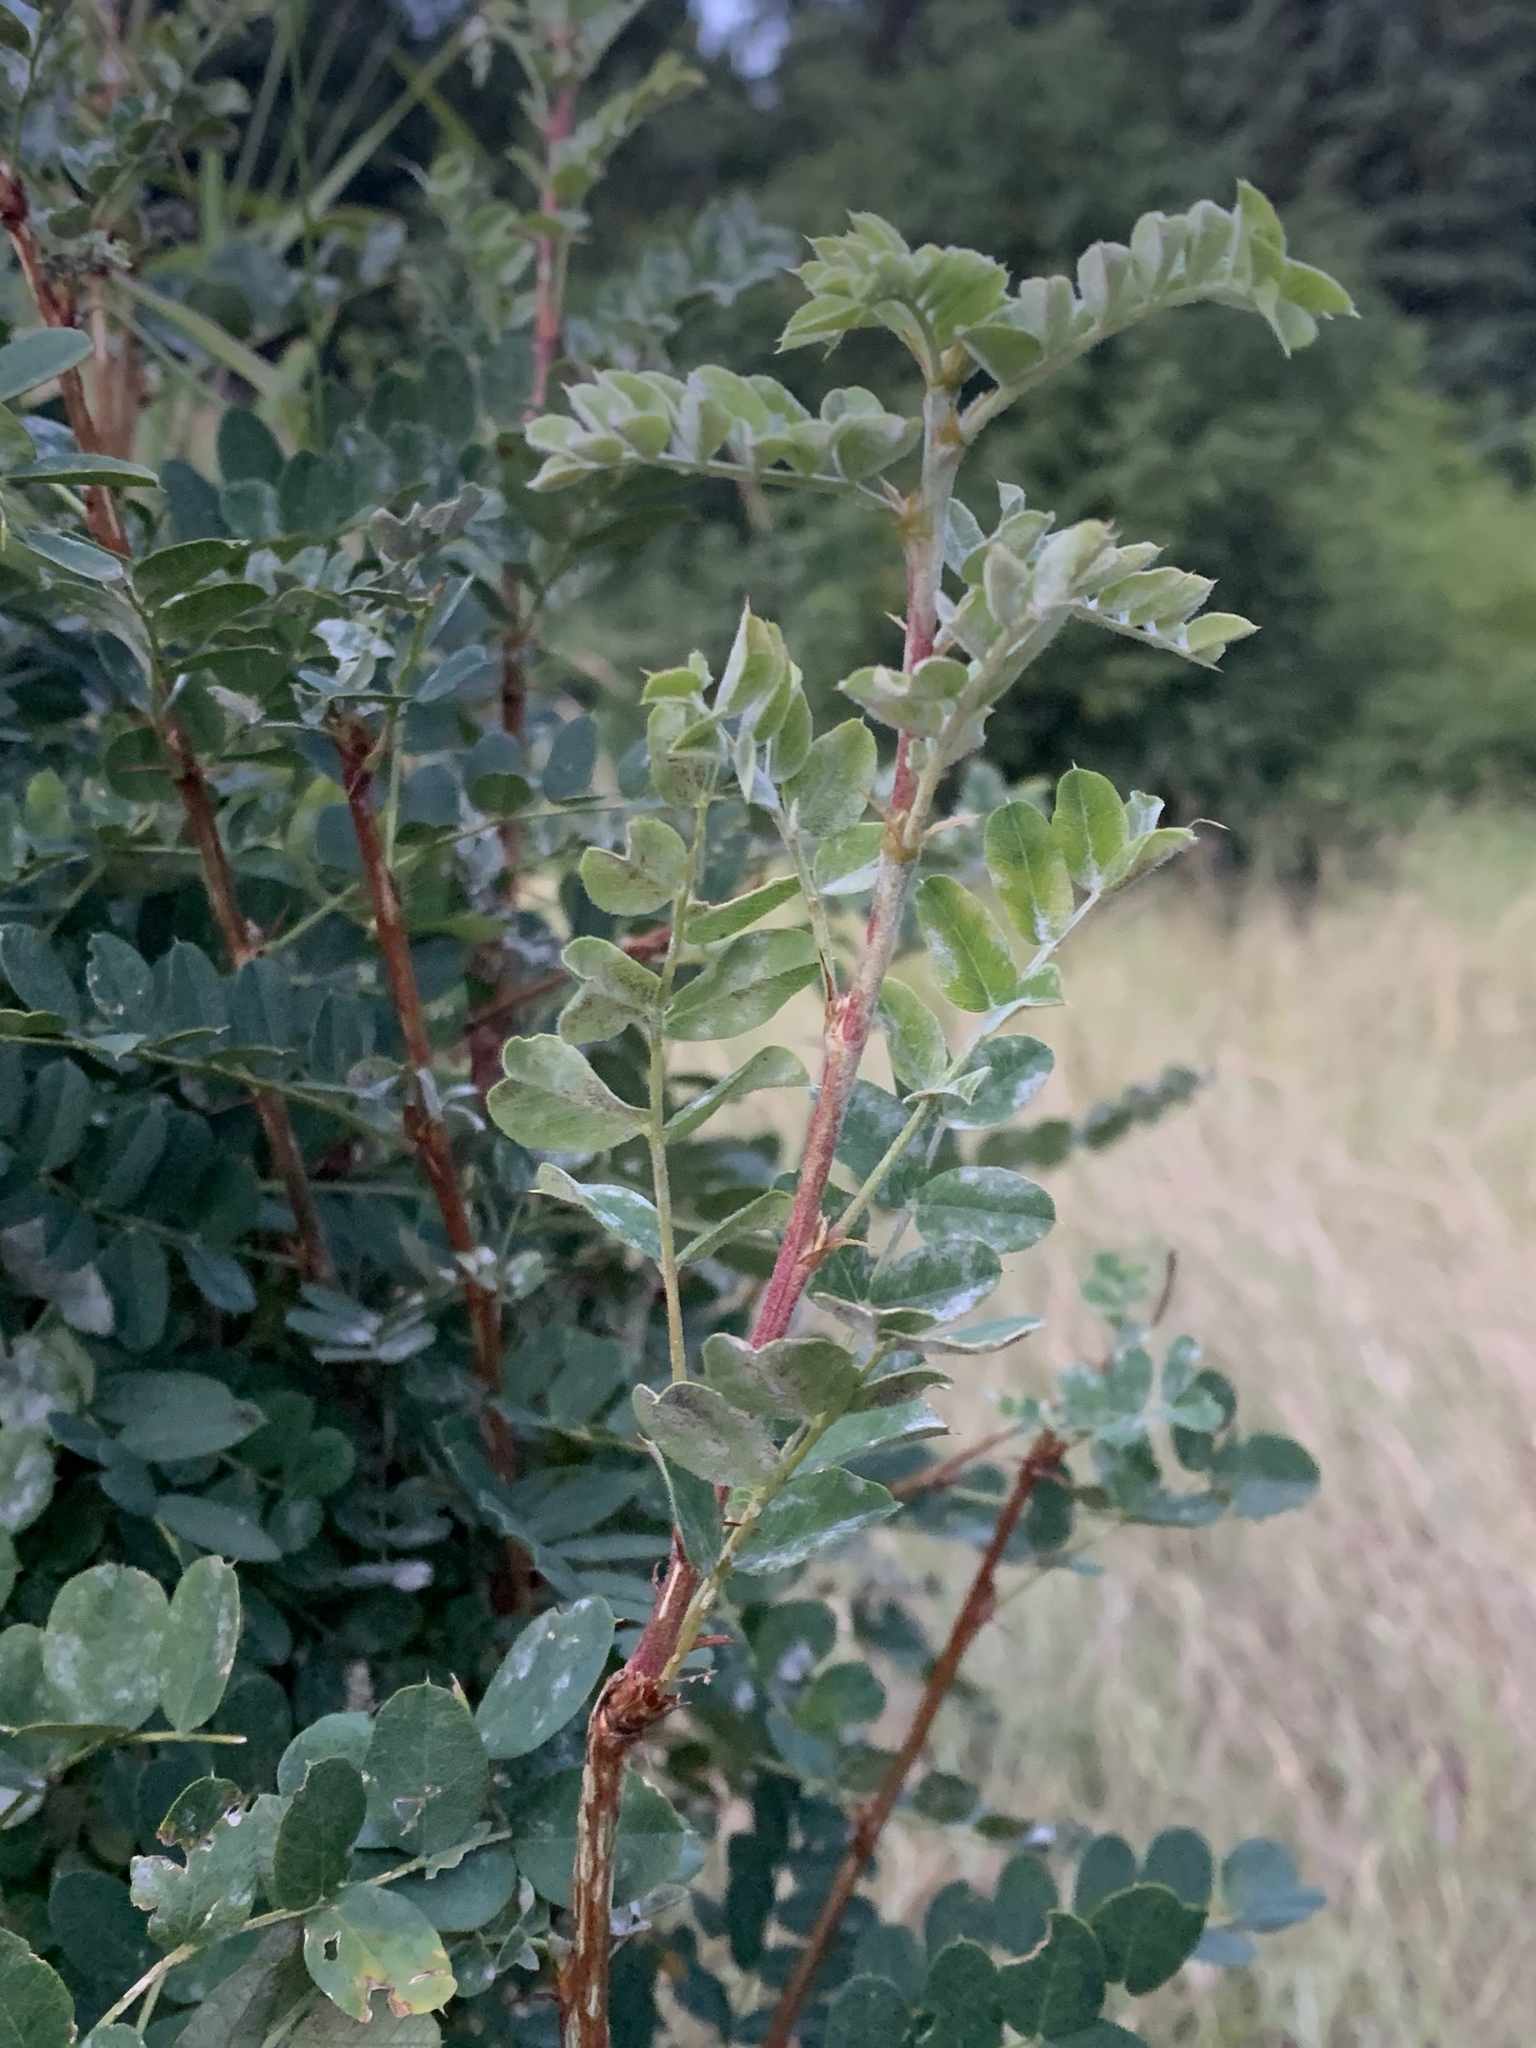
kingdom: Plantae
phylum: Tracheophyta
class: Magnoliopsida
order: Fabales
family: Fabaceae
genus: Caragana
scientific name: Caragana arborescens
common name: Siberian peashrub
